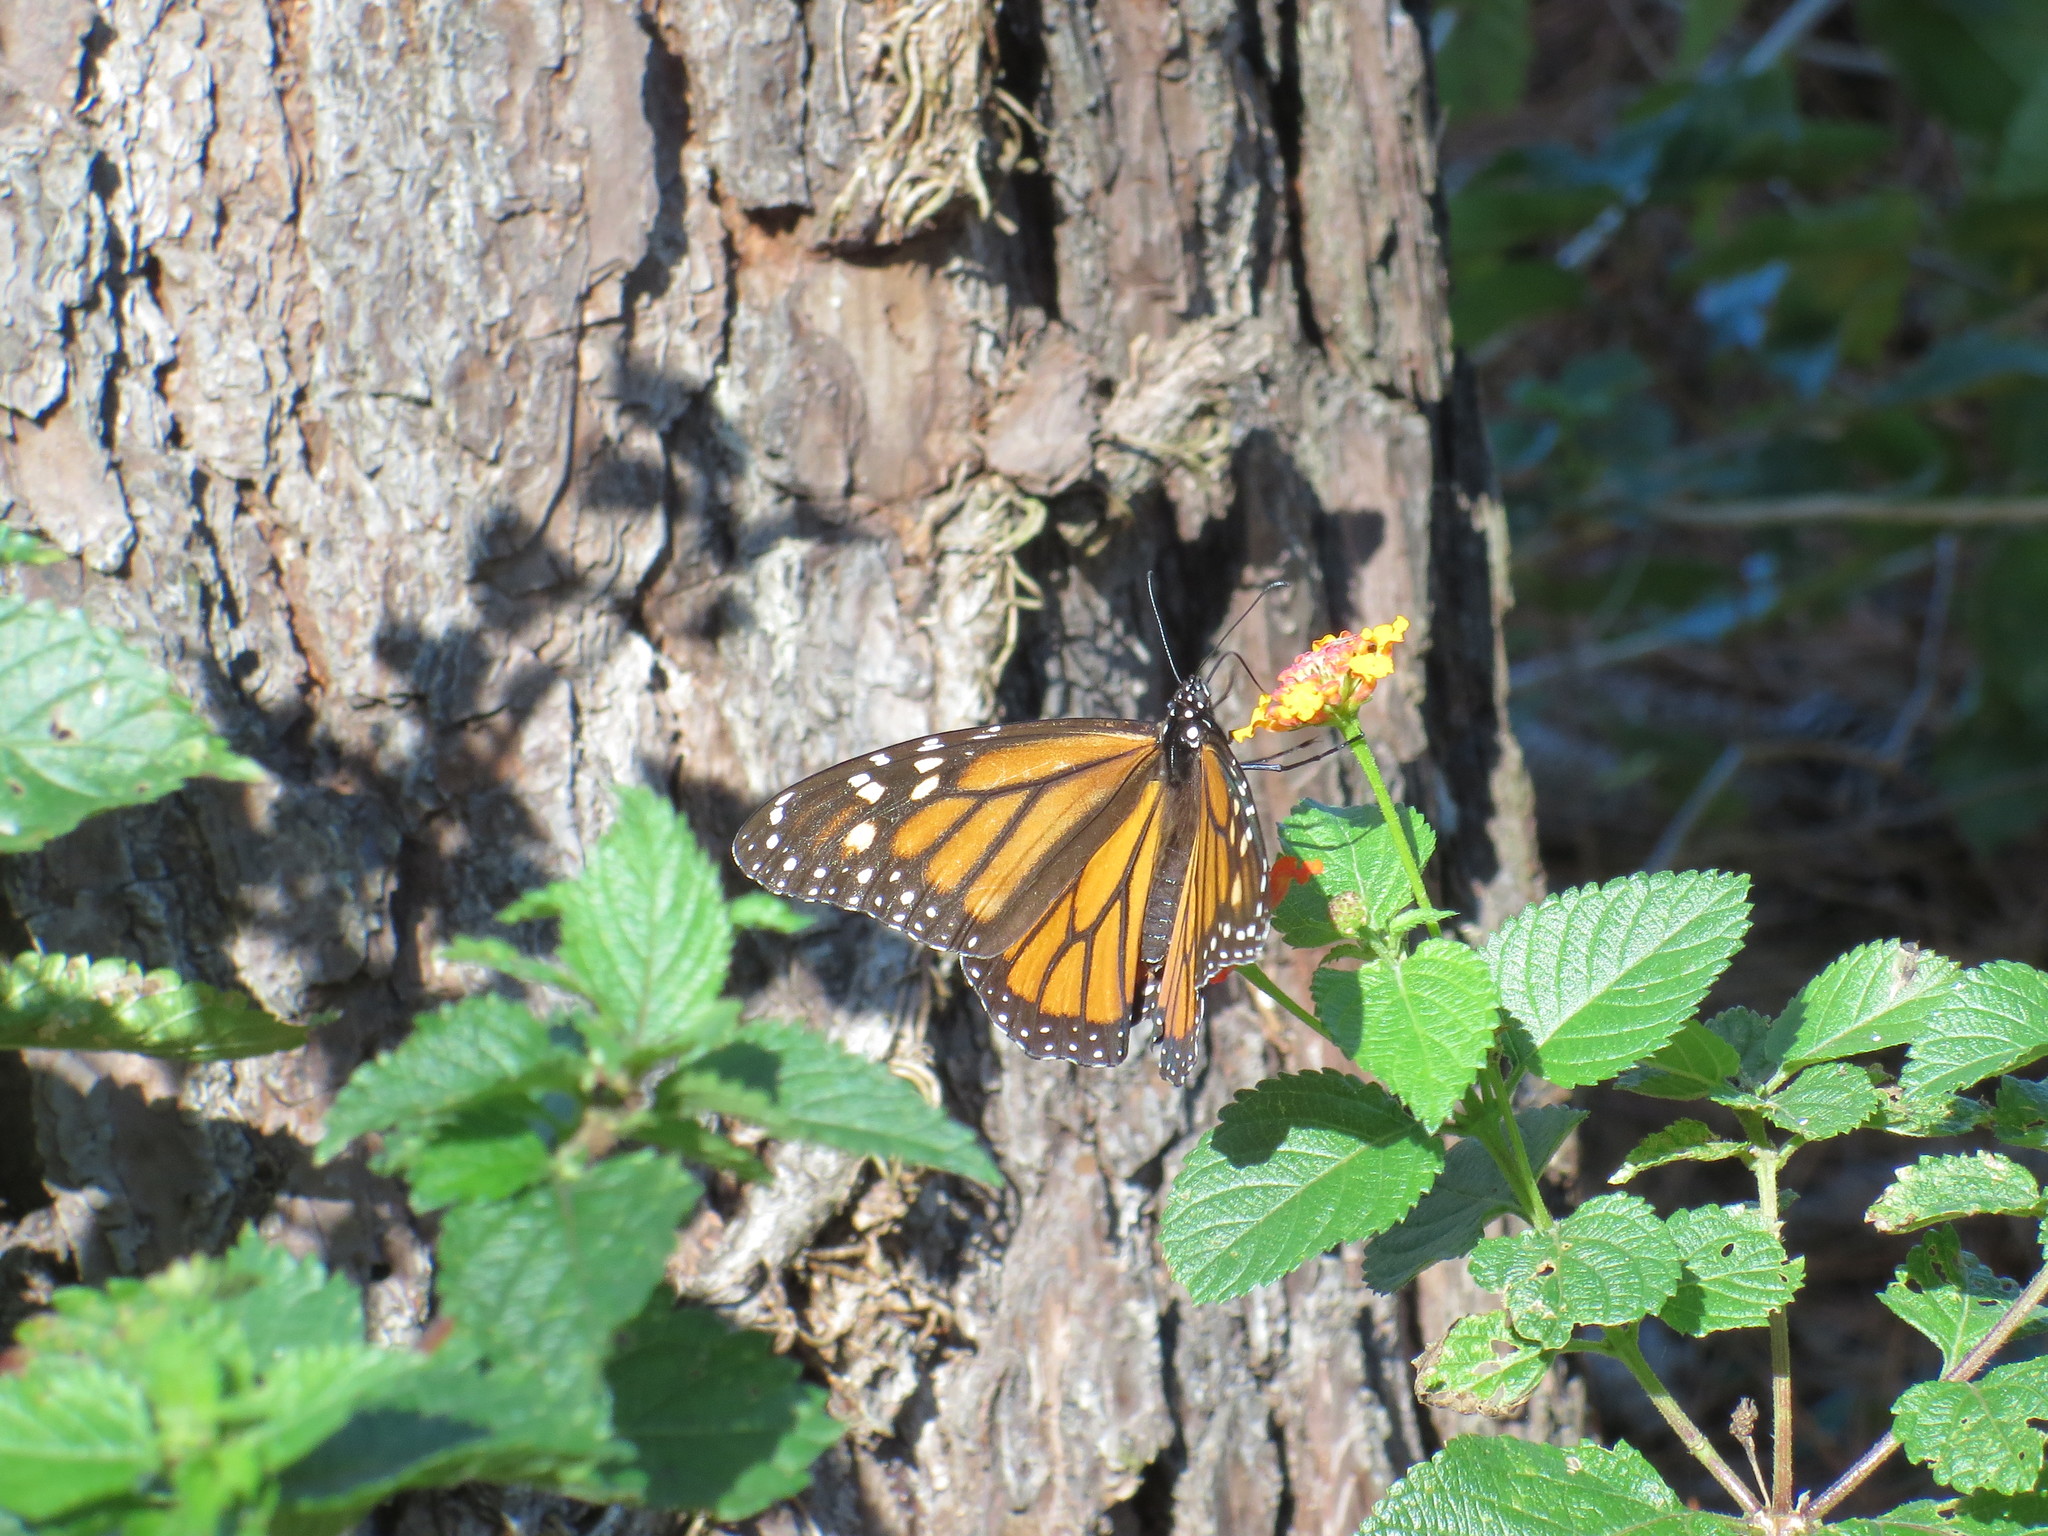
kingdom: Animalia
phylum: Arthropoda
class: Insecta
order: Lepidoptera
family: Nymphalidae
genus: Danaus
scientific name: Danaus plexippus
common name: Monarch
